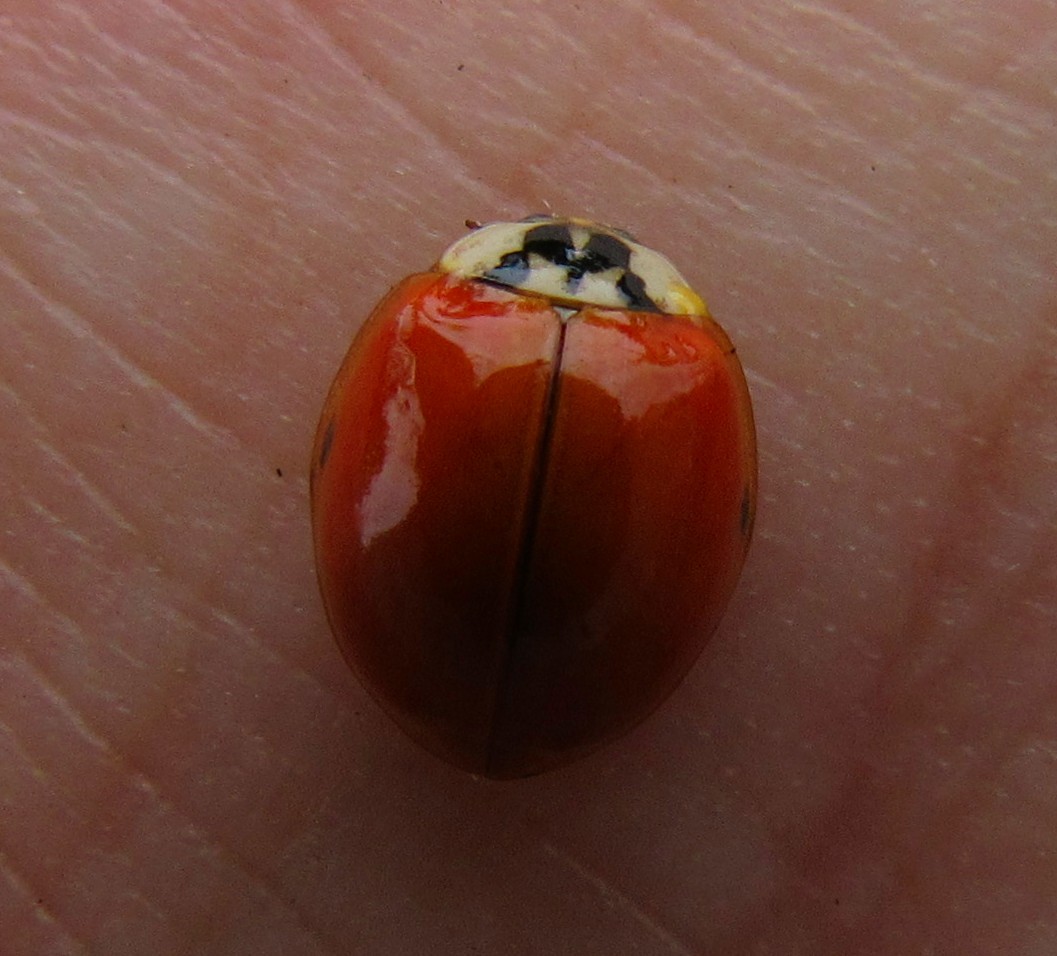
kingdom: Animalia
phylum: Arthropoda
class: Insecta
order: Coleoptera
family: Coccinellidae
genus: Harmonia
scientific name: Harmonia axyridis
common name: Harlequin ladybird
